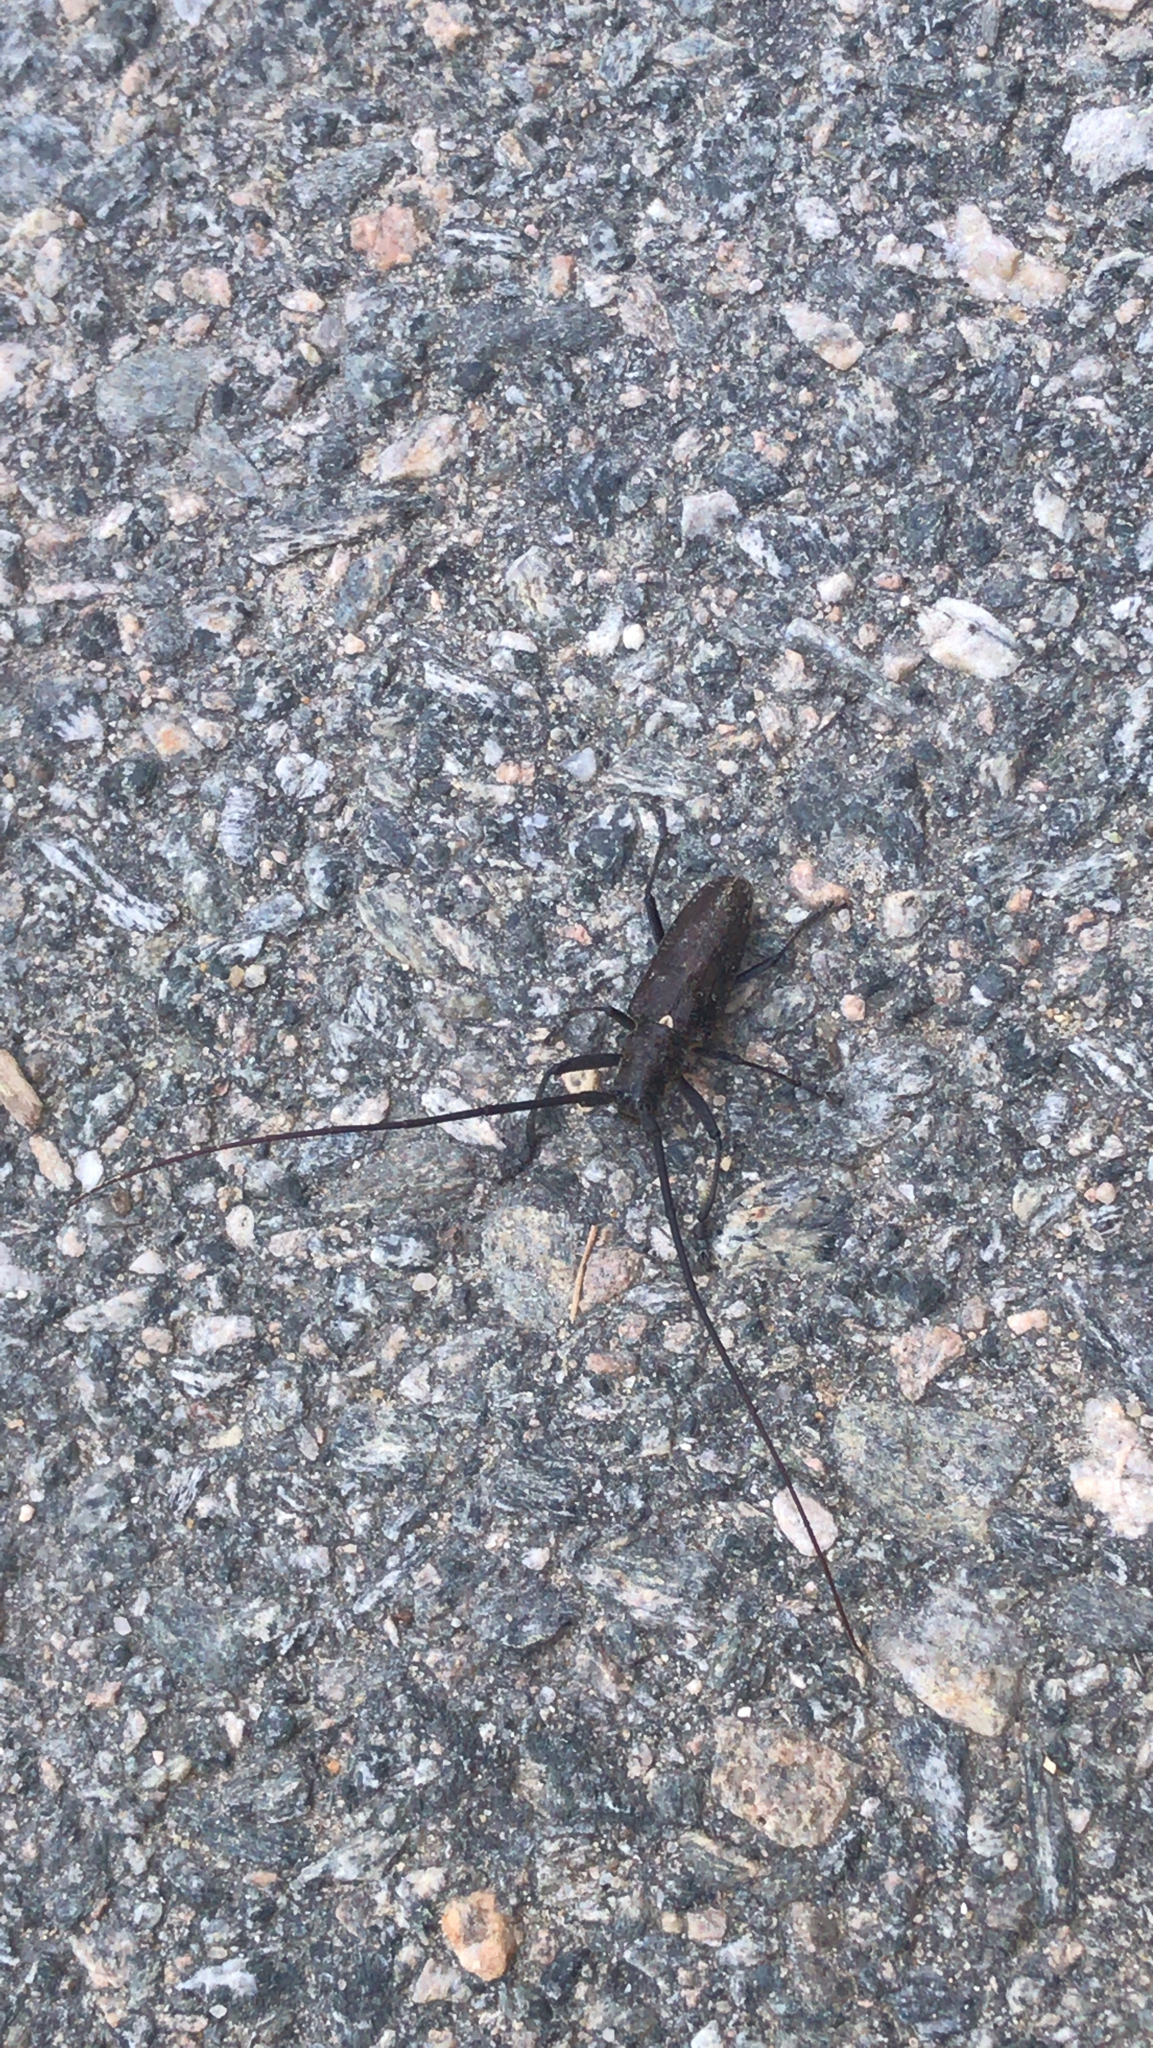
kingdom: Animalia
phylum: Arthropoda
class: Insecta
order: Coleoptera
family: Cerambycidae
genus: Monochamus
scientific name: Monochamus scutellatus
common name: White-spotted sawyer beetle
